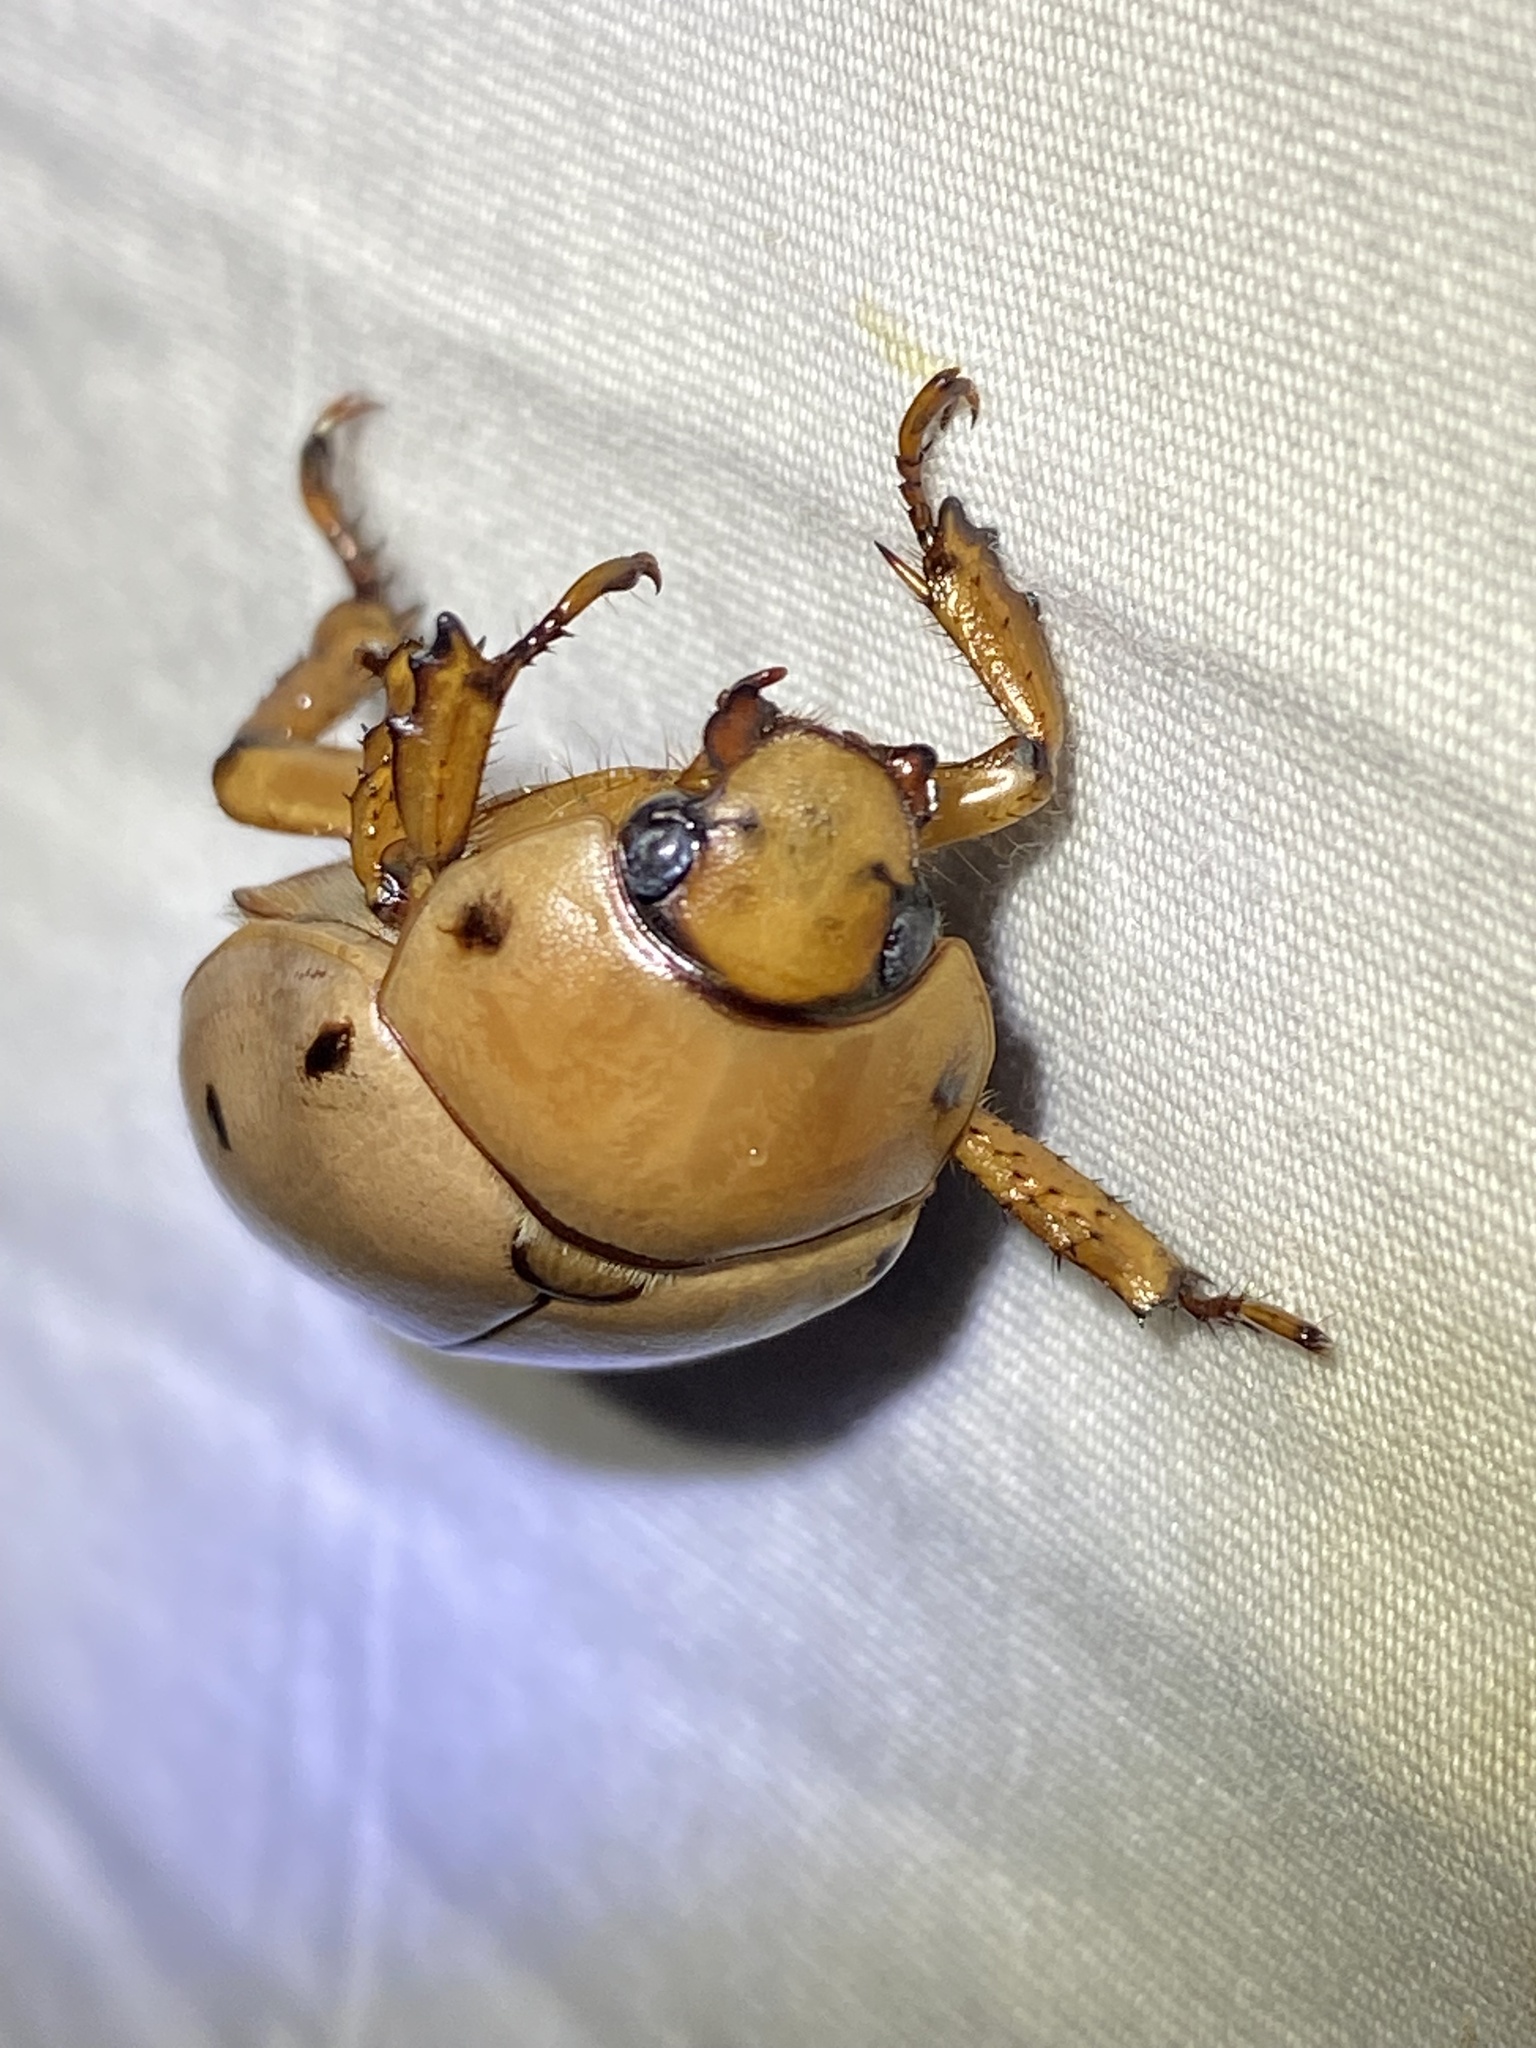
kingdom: Animalia
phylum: Arthropoda
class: Insecta
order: Coleoptera
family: Scarabaeidae
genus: Pelidnota
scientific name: Pelidnota punctata
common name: Grapevine beetle
